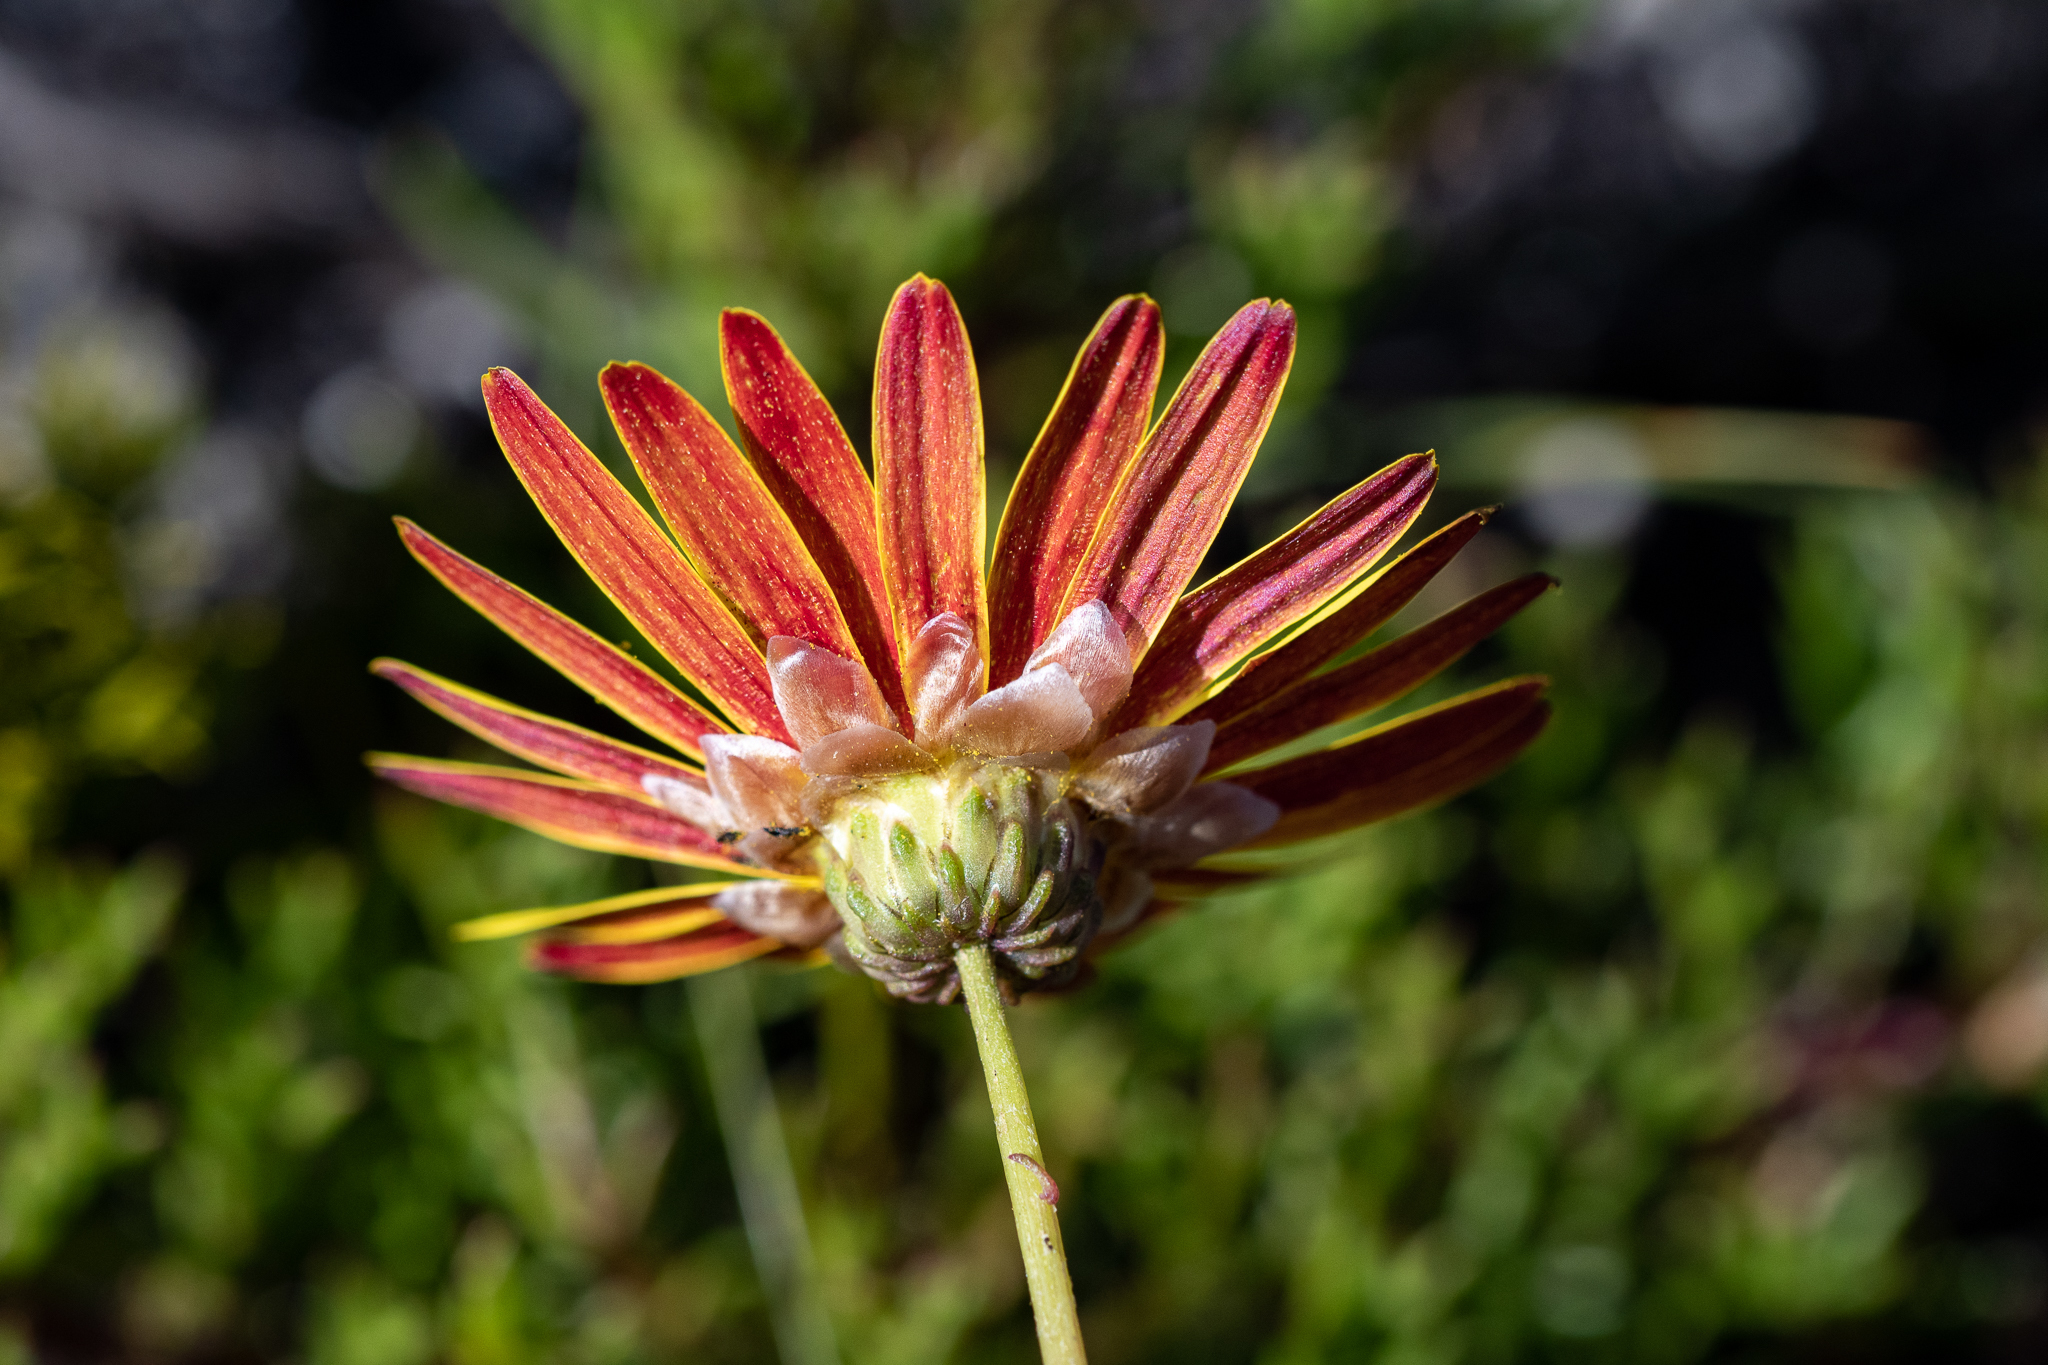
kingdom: Plantae
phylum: Tracheophyta
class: Magnoliopsida
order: Asterales
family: Asteraceae
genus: Ursinia
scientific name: Ursinia paleacea
